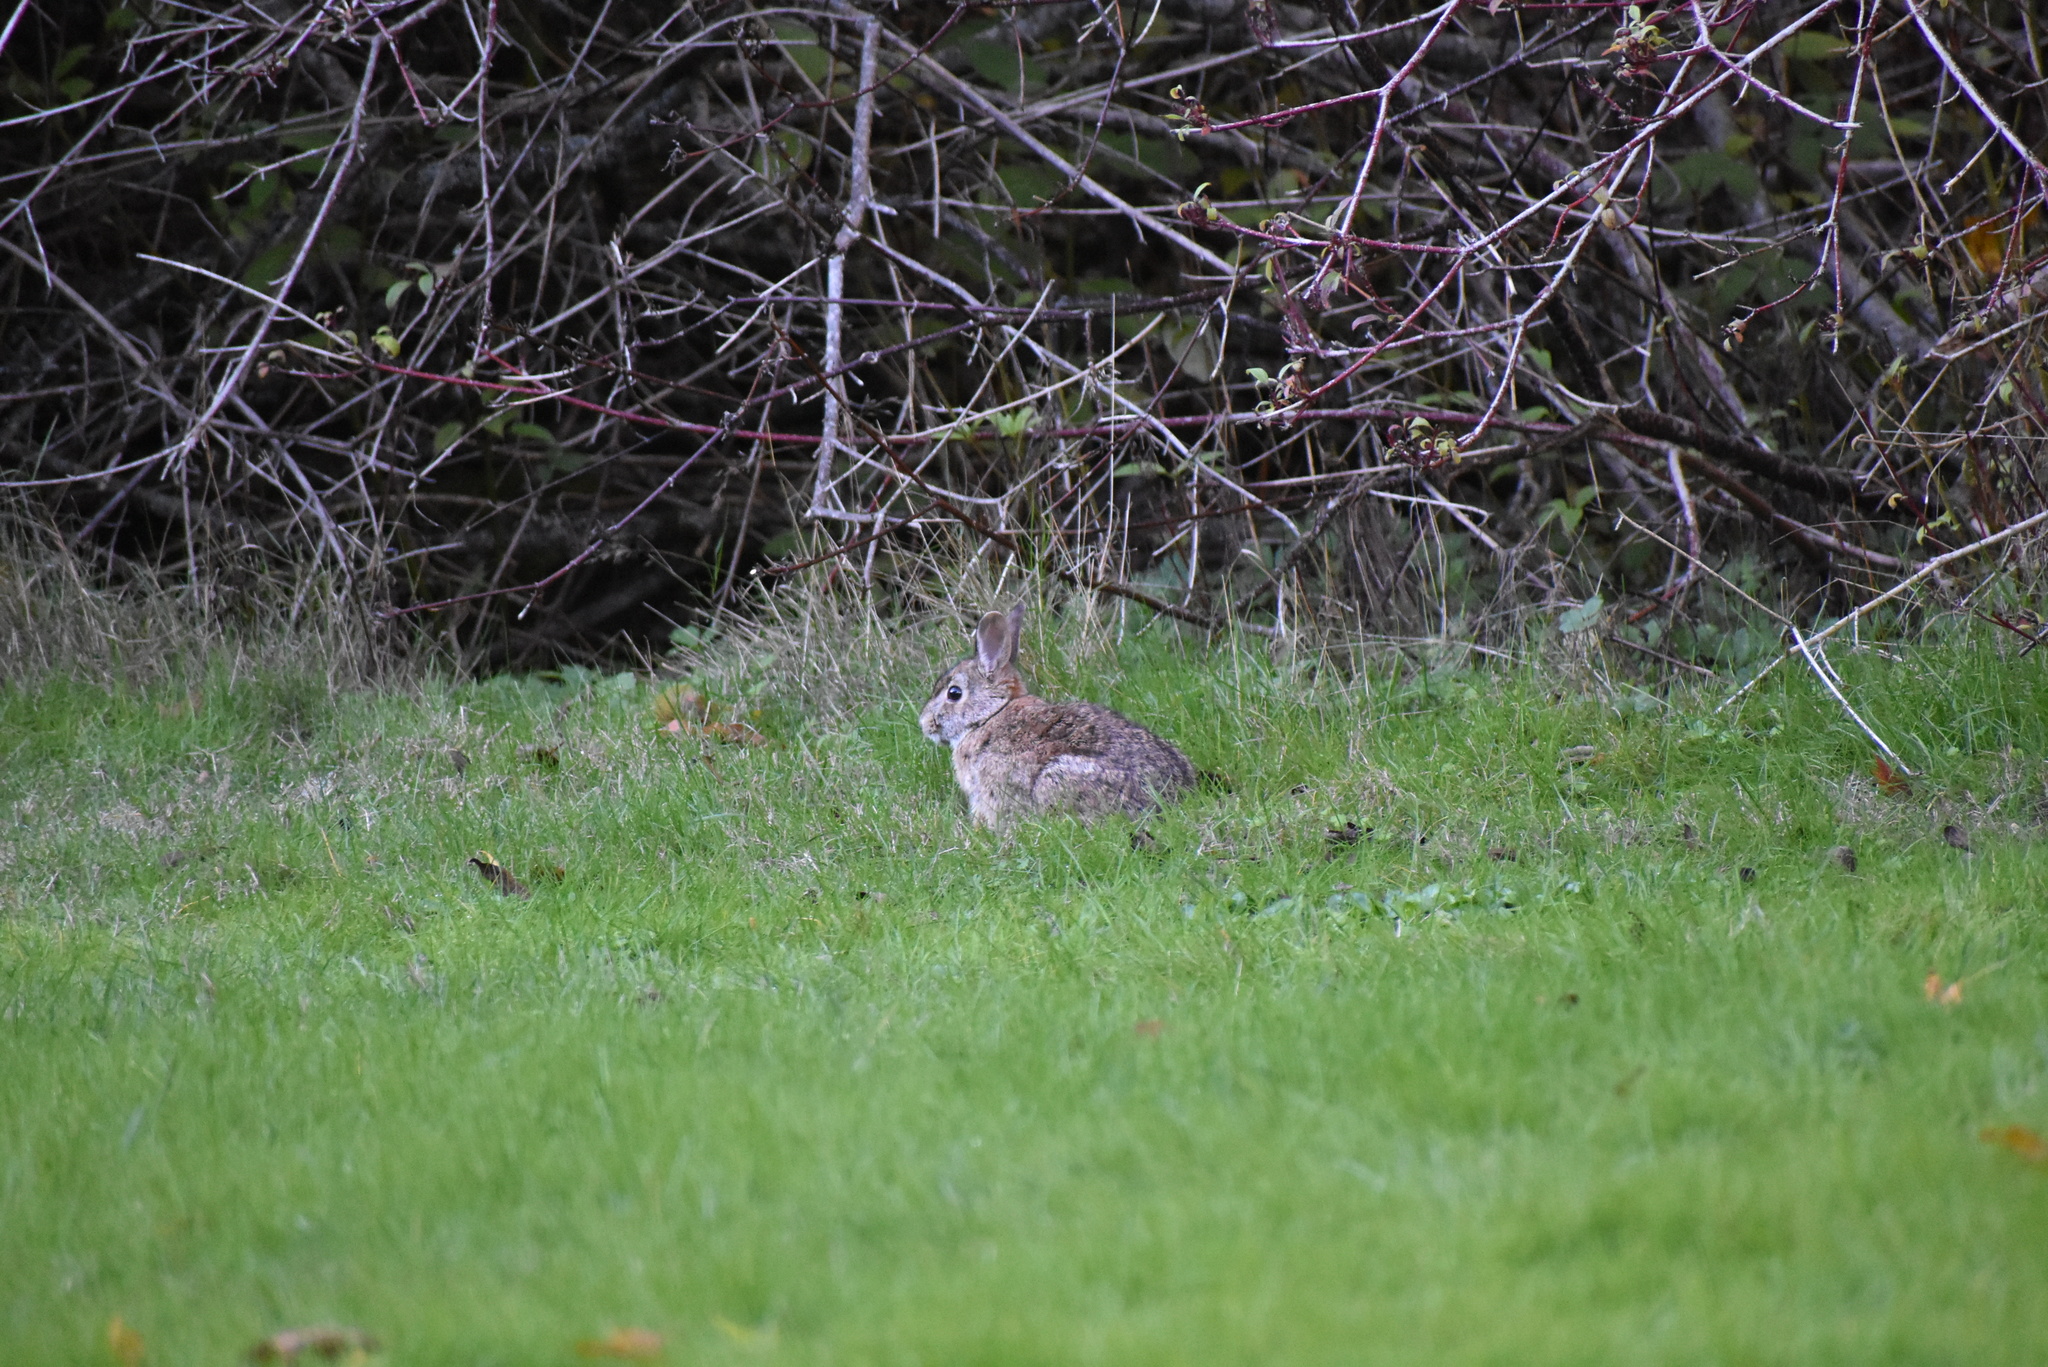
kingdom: Animalia
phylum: Chordata
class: Mammalia
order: Lagomorpha
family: Leporidae
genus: Sylvilagus
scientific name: Sylvilagus floridanus
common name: Eastern cottontail
